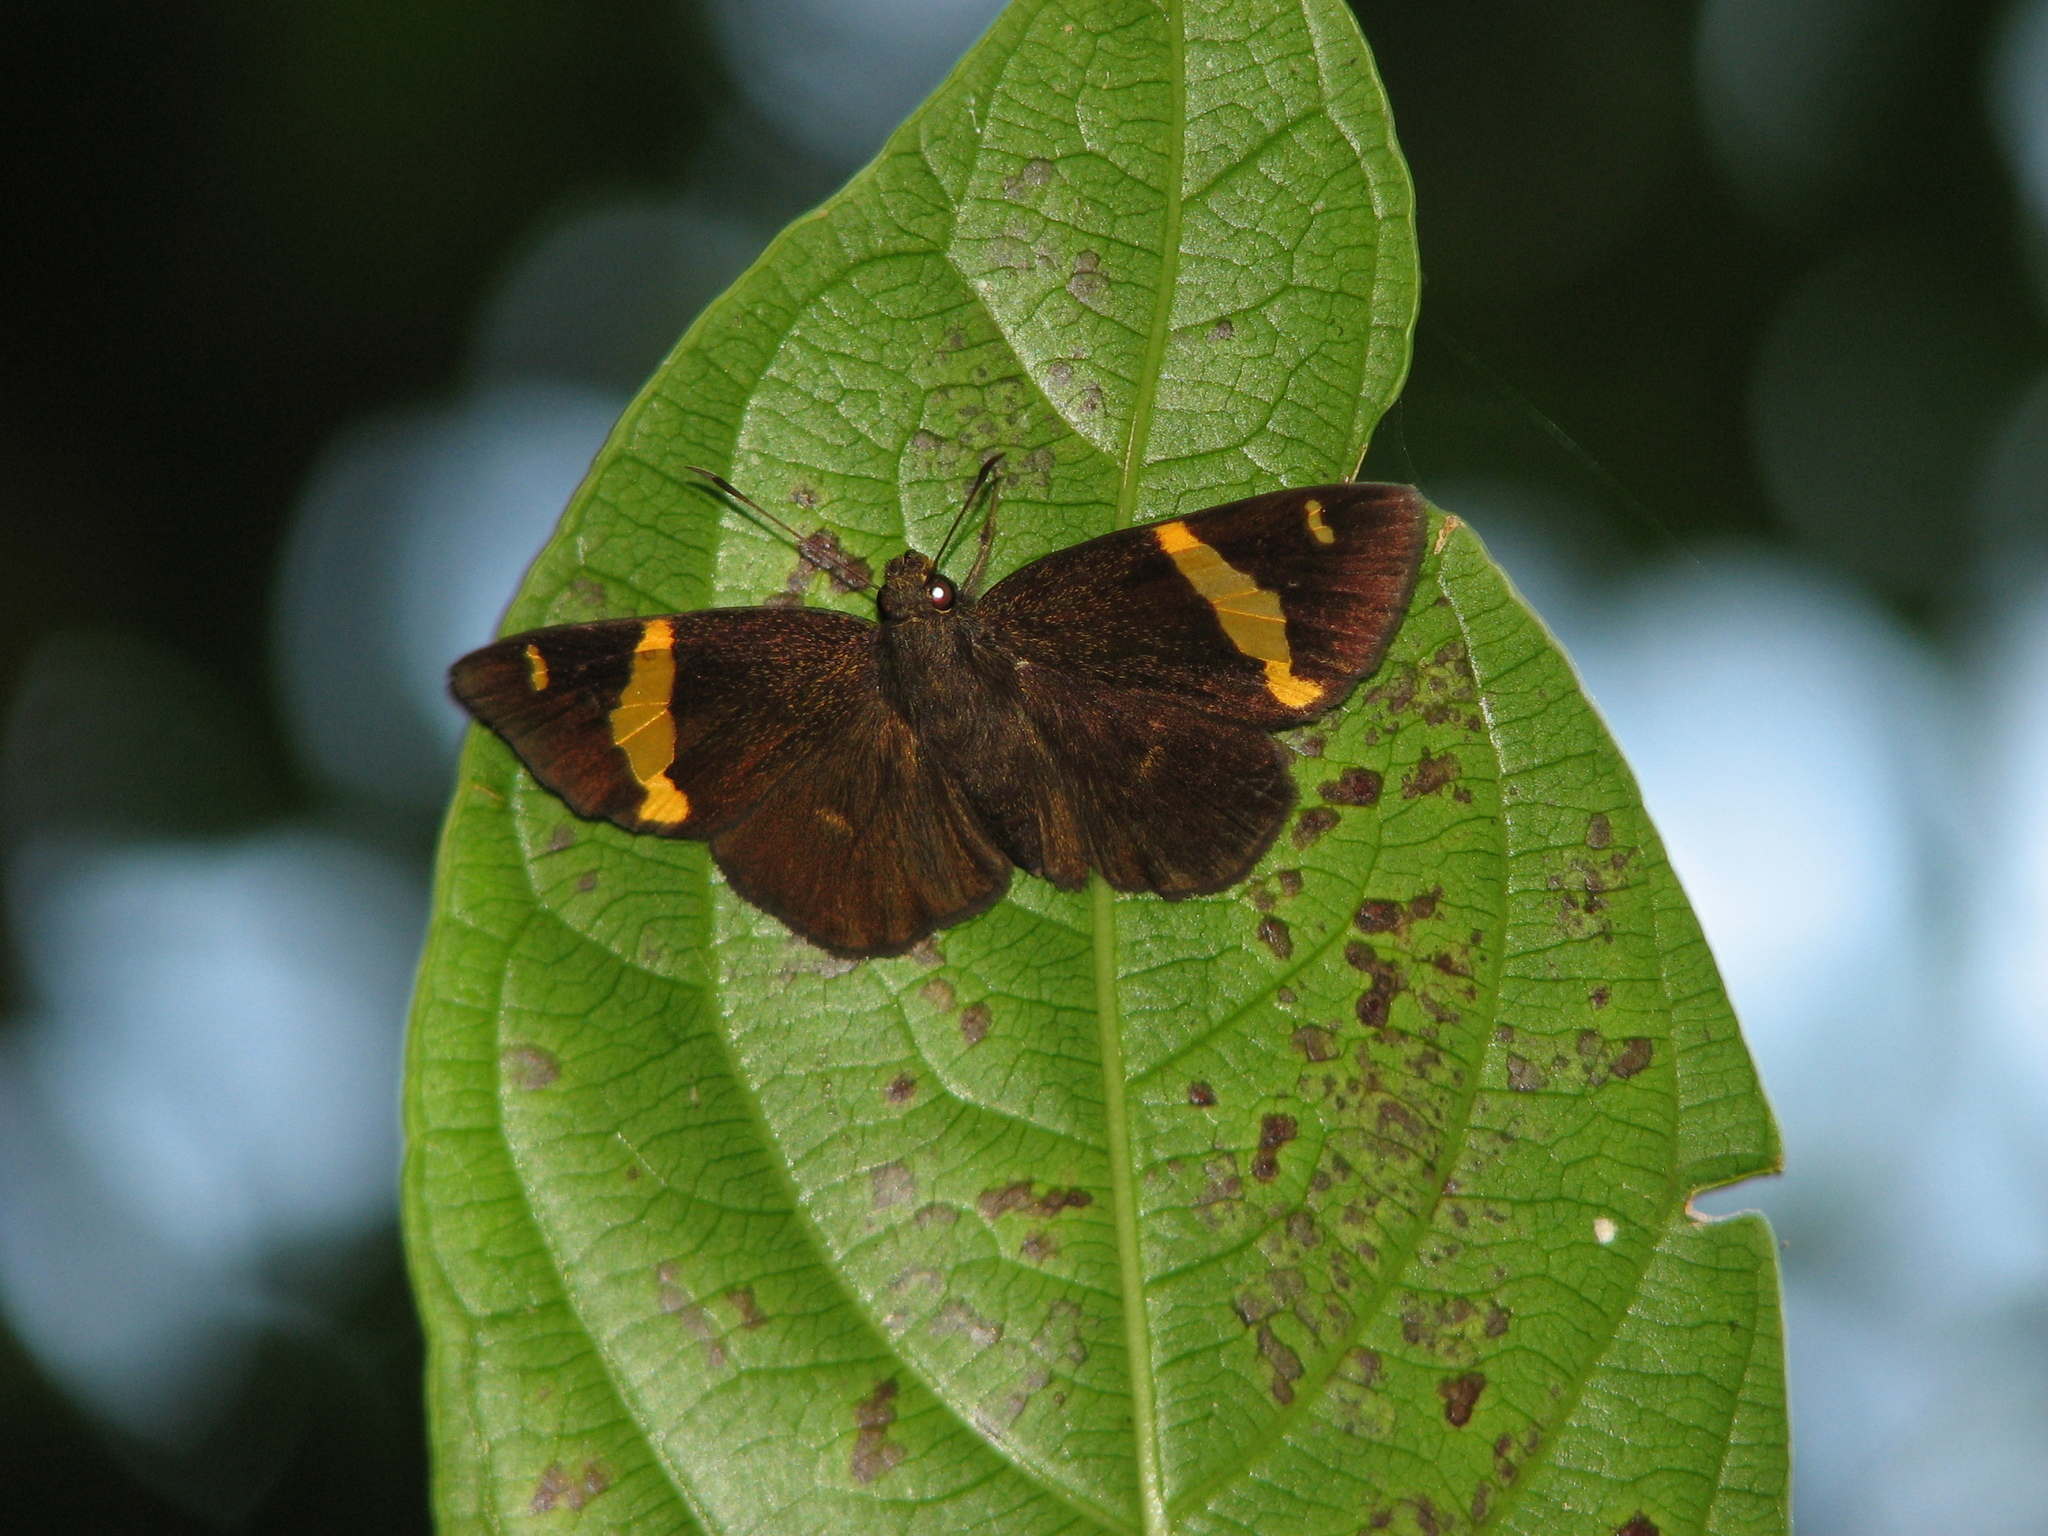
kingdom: Animalia
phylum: Arthropoda
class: Insecta
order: Lepidoptera
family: Hesperiidae
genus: Aurivittia
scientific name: Aurivittia
